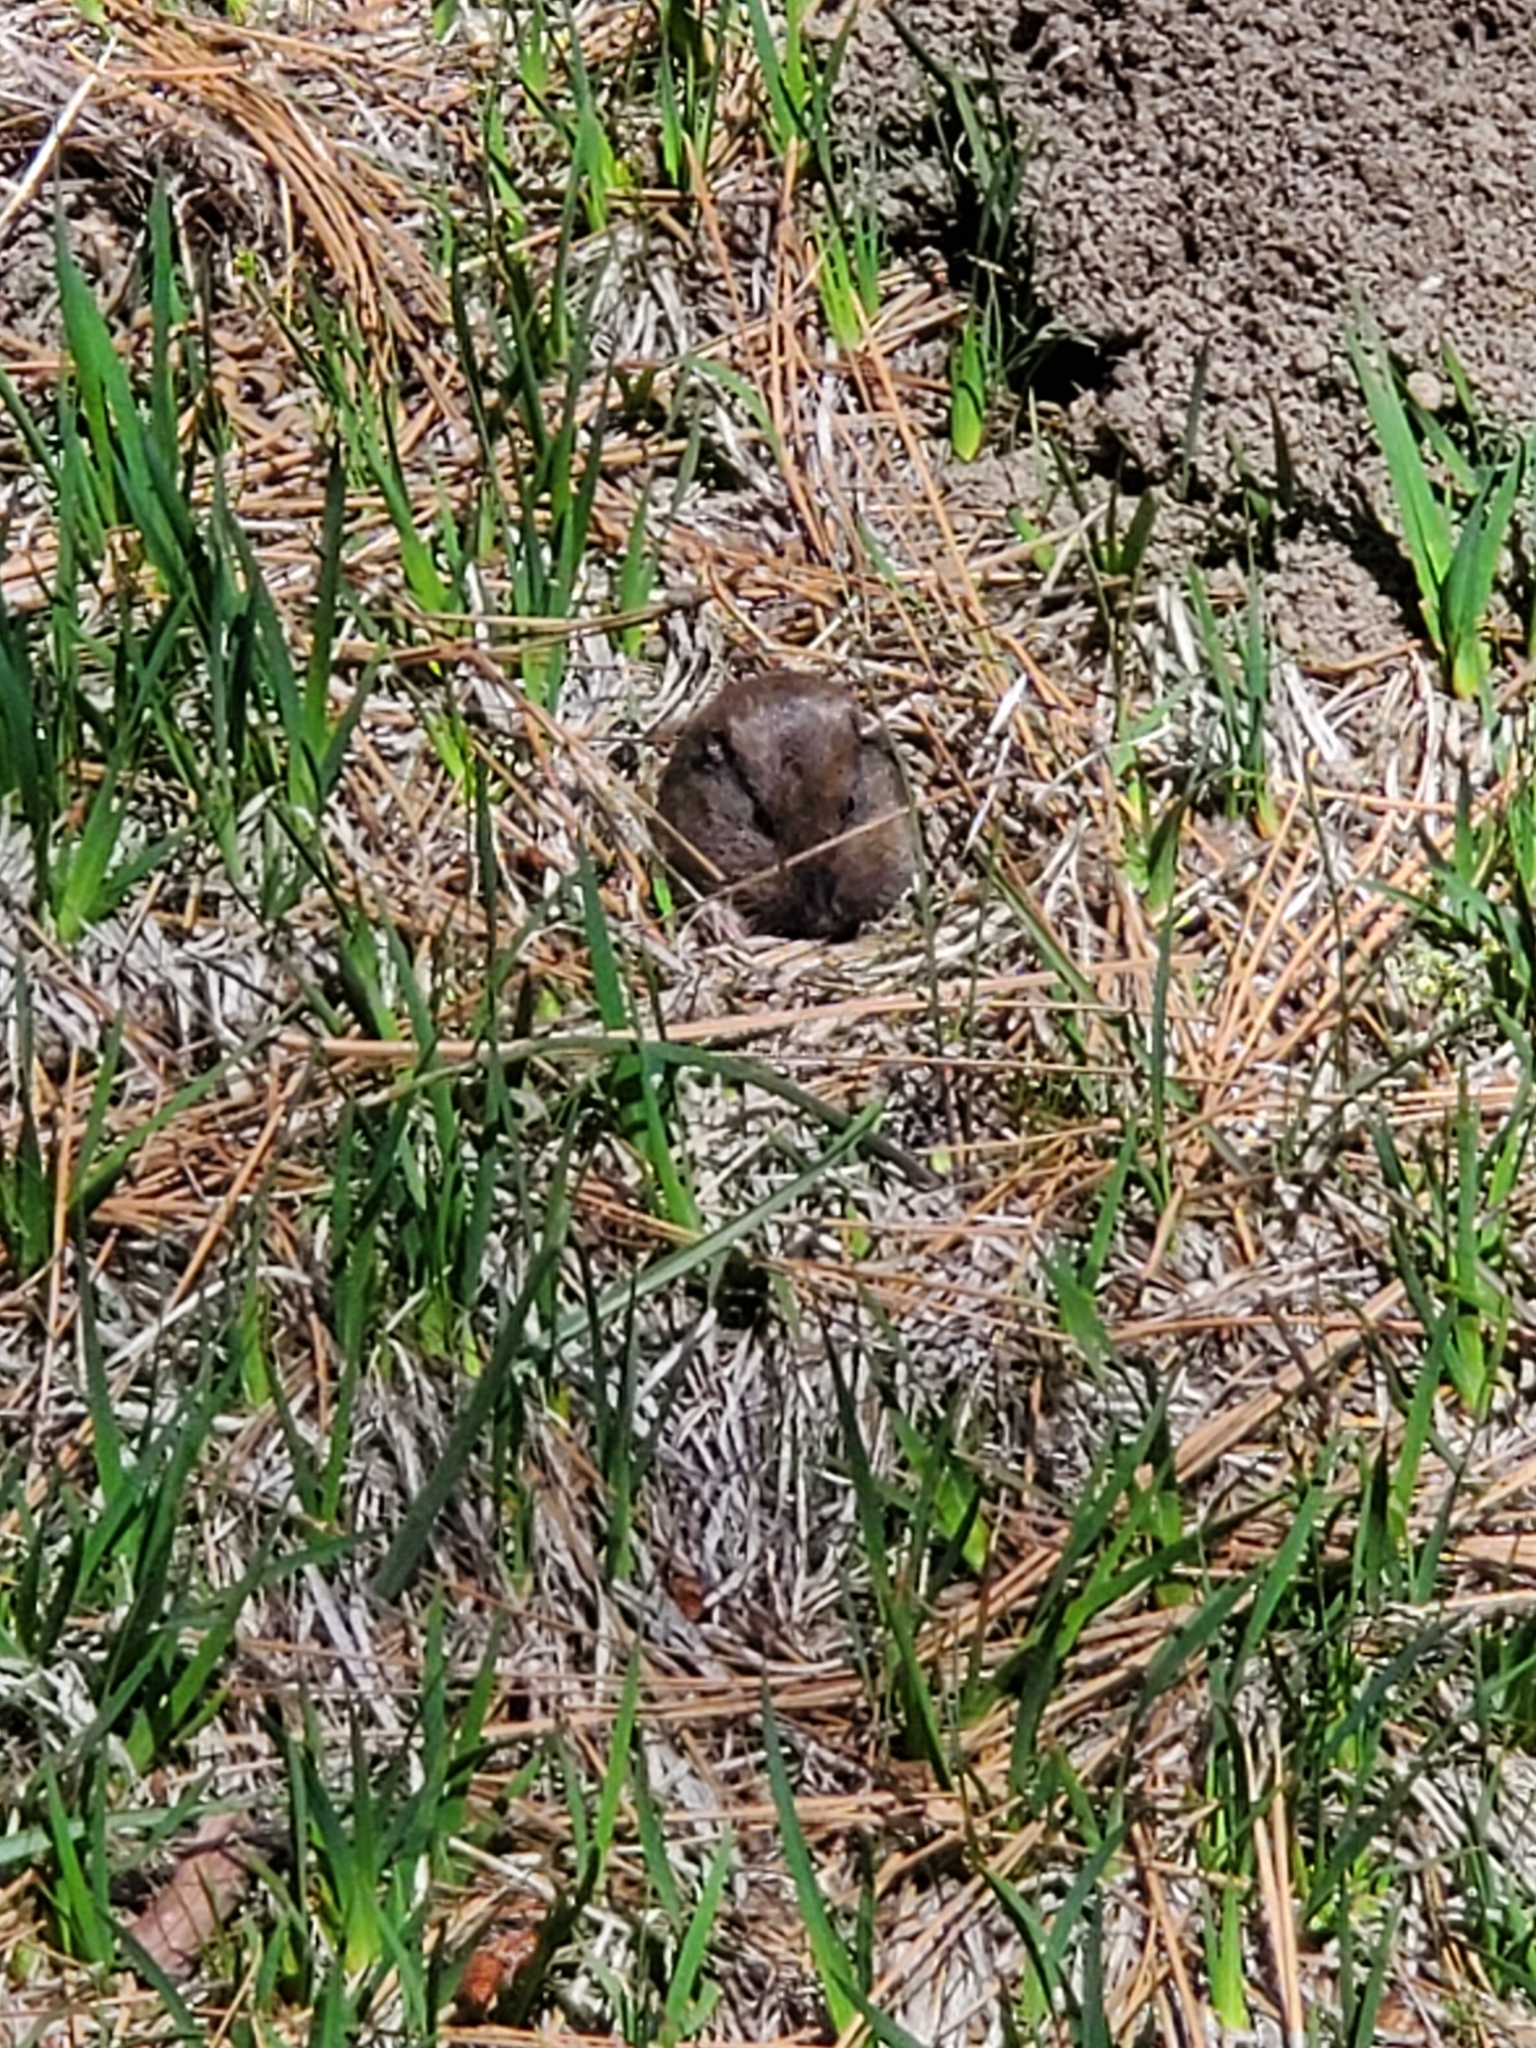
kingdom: Animalia
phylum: Chordata
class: Mammalia
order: Rodentia
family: Geomyidae
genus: Thomomys
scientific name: Thomomys bottae
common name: Botta's pocket gopher
